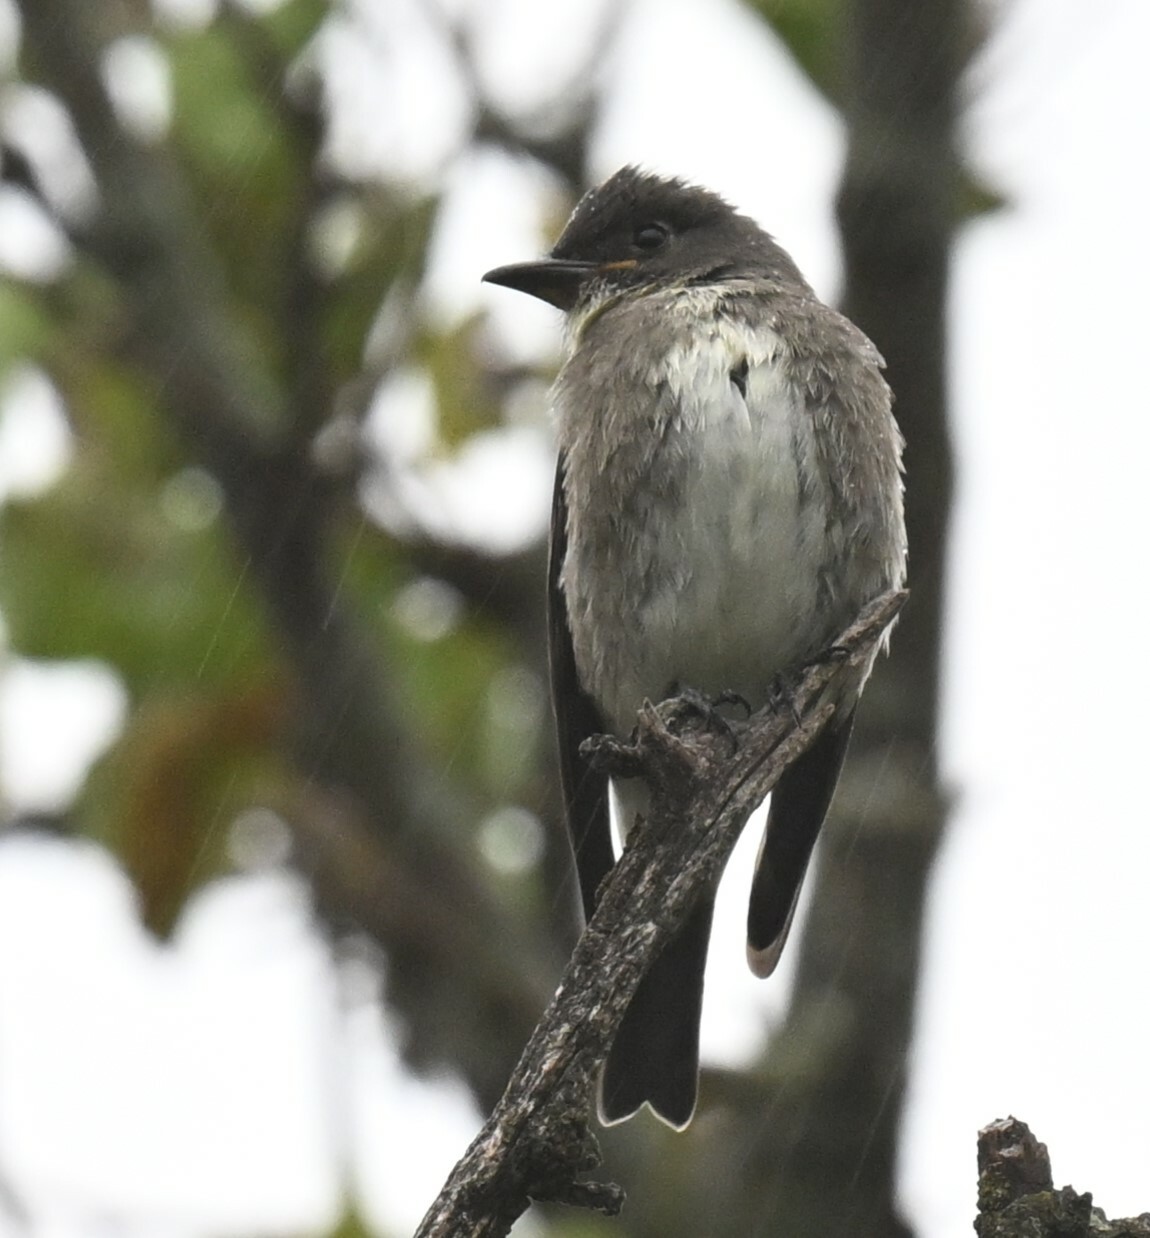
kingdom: Animalia
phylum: Chordata
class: Aves
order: Passeriformes
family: Tyrannidae
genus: Contopus
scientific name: Contopus cooperi
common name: Olive-sided flycatcher
